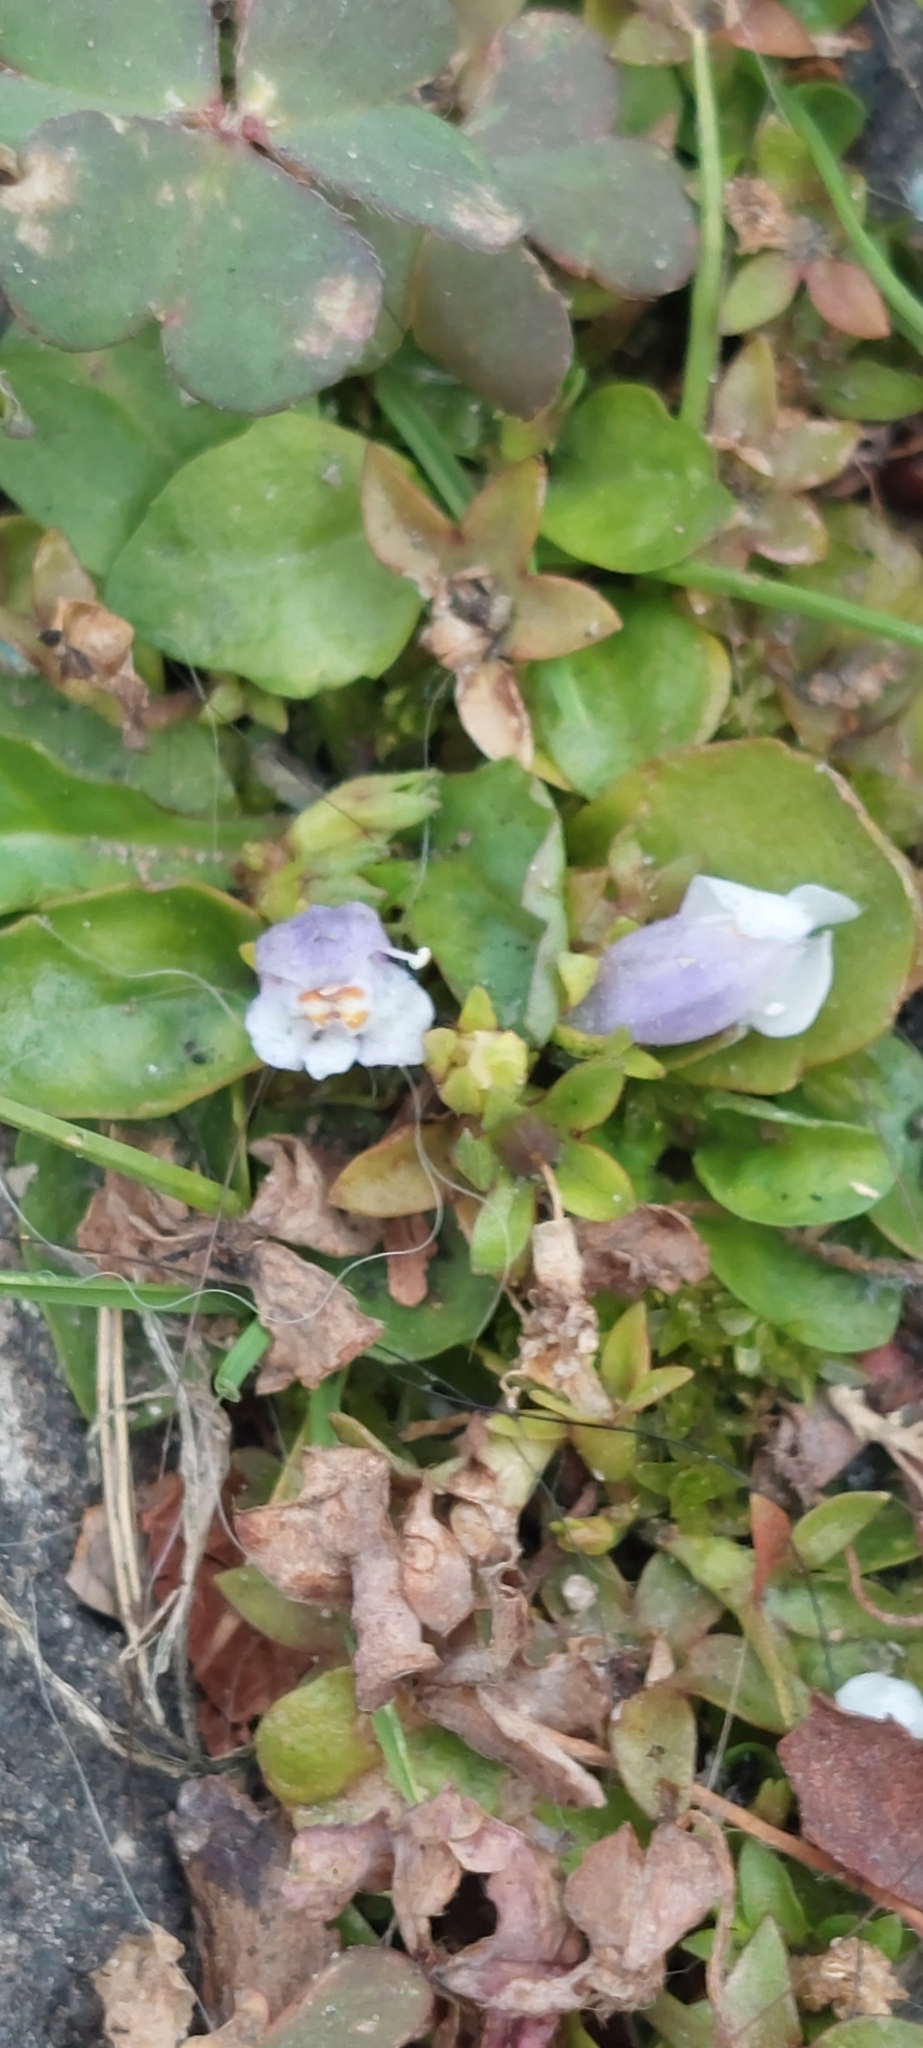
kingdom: Plantae
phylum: Tracheophyta
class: Magnoliopsida
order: Lamiales
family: Mazaceae
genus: Mazus
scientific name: Mazus pumilus
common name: Japanese mazus
